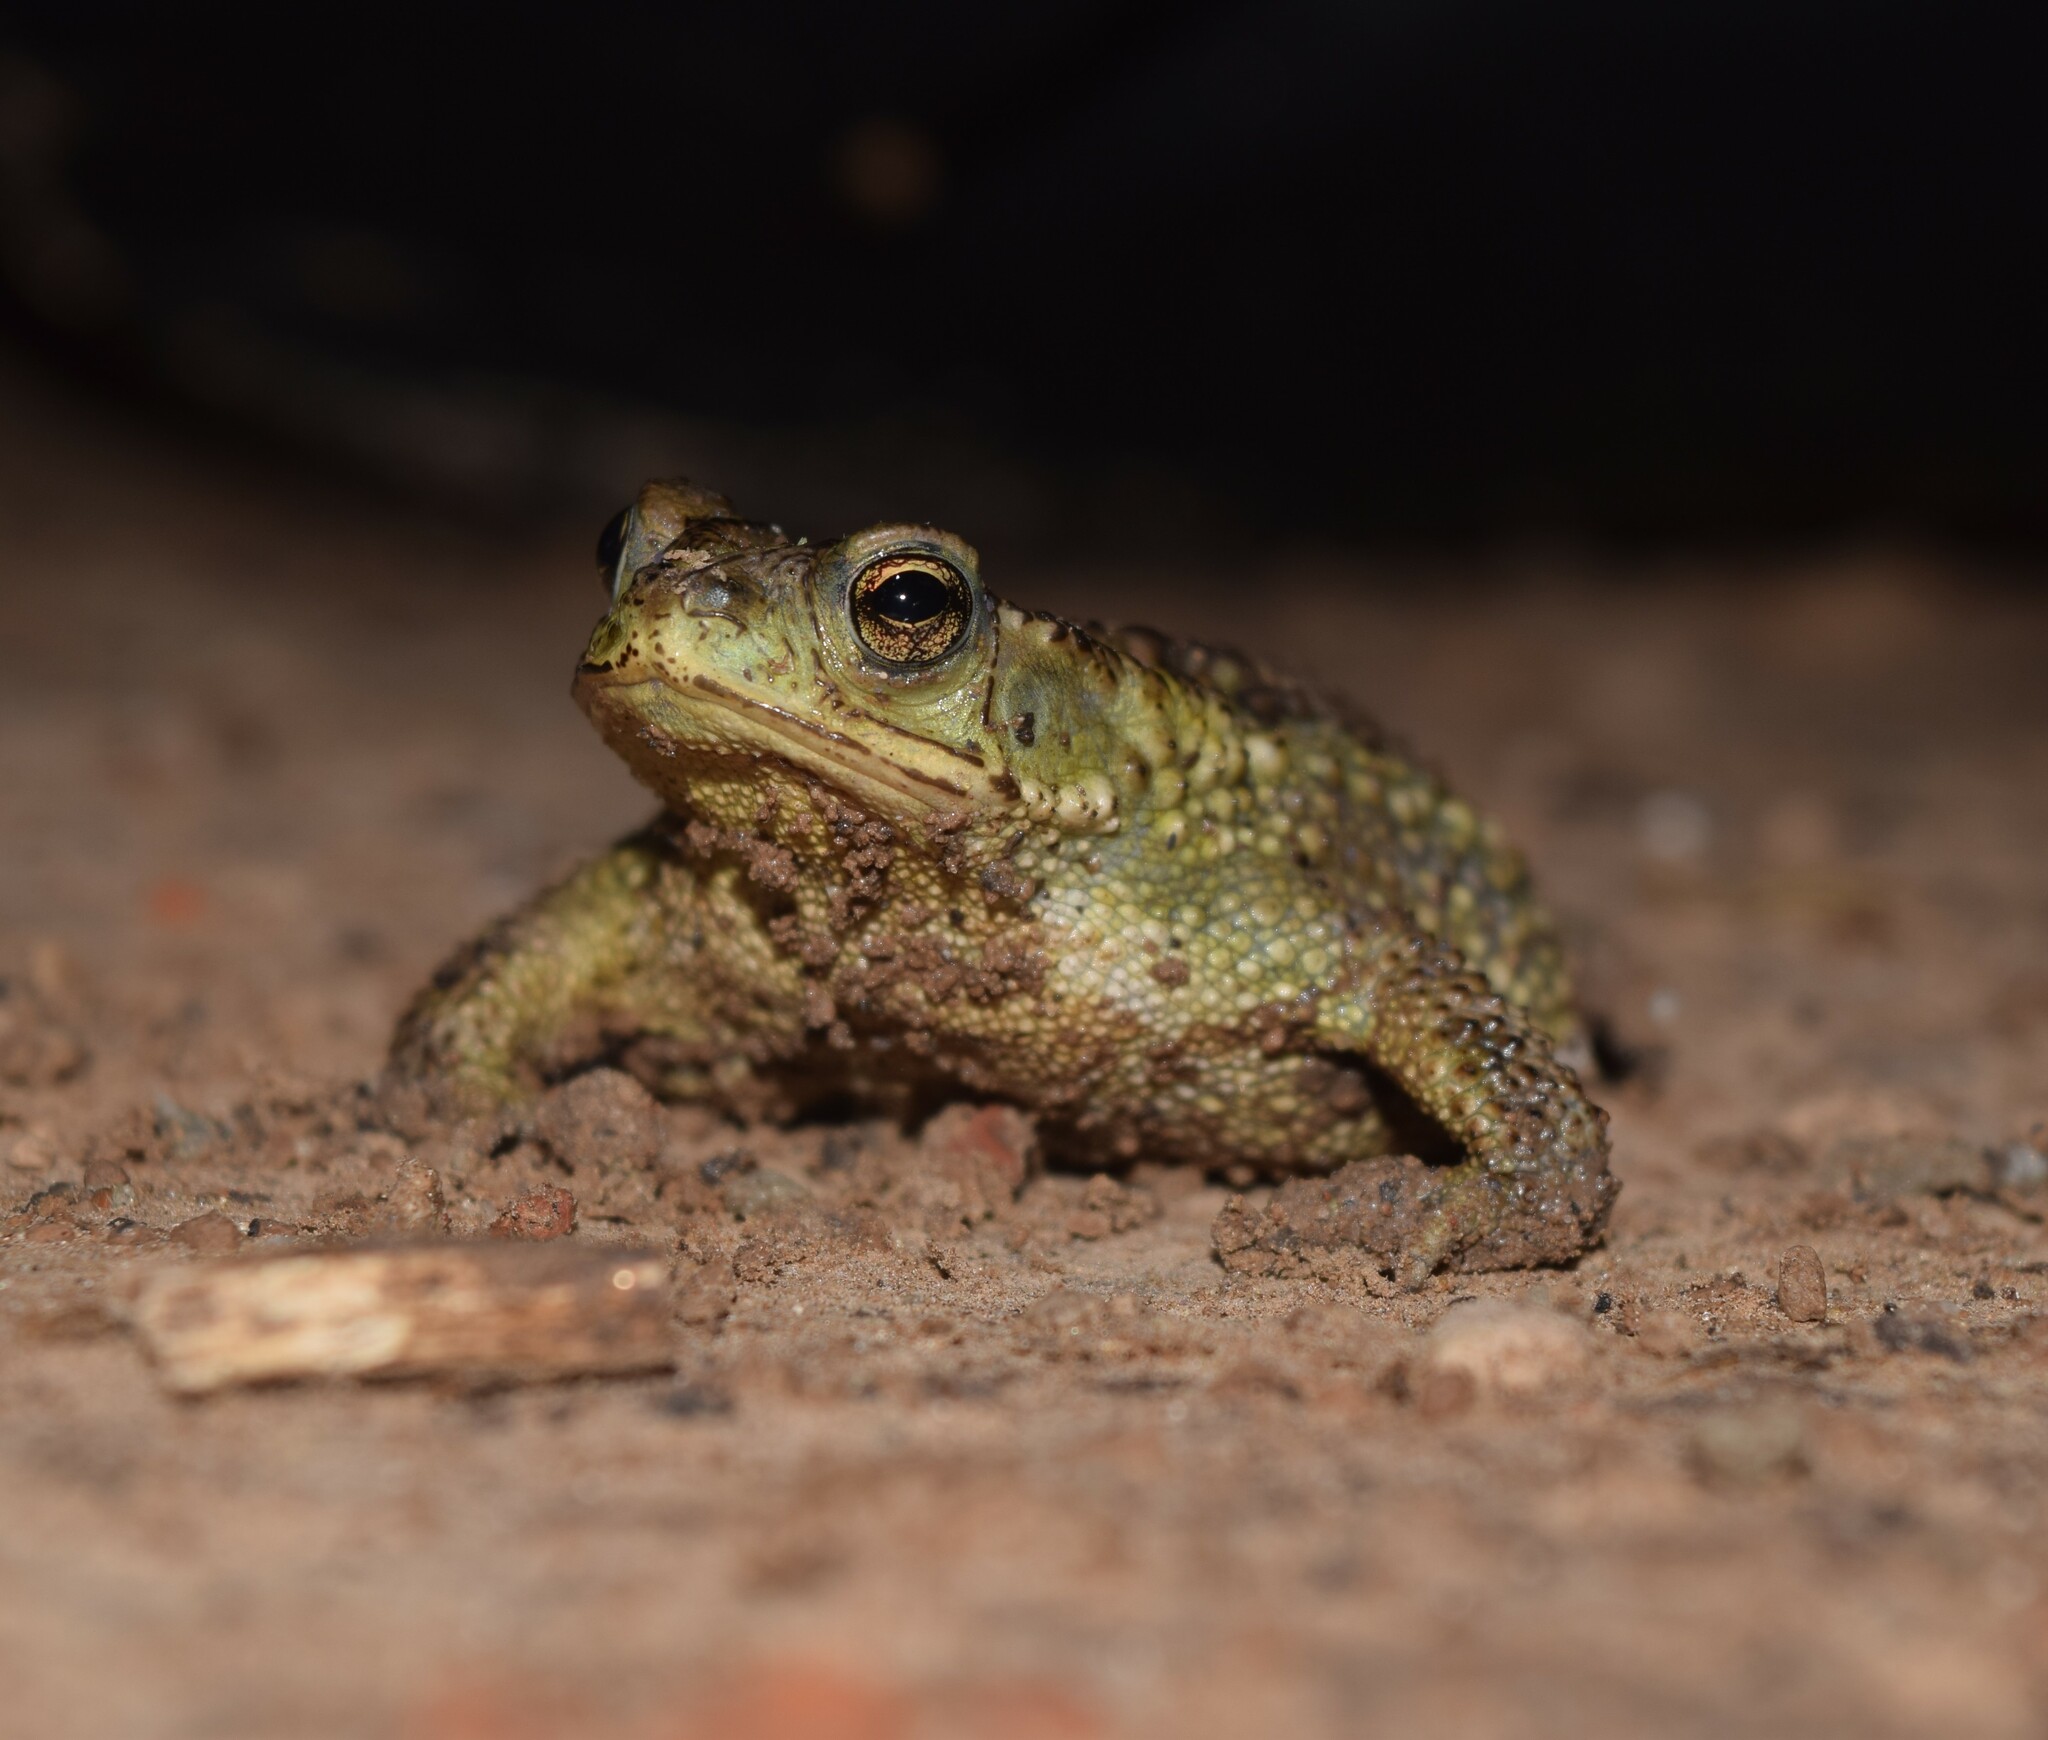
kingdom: Animalia
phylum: Chordata
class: Amphibia
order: Anura
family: Bufonidae
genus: Rhinella
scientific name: Rhinella dorbignyi
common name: D´orbigny’s toad
